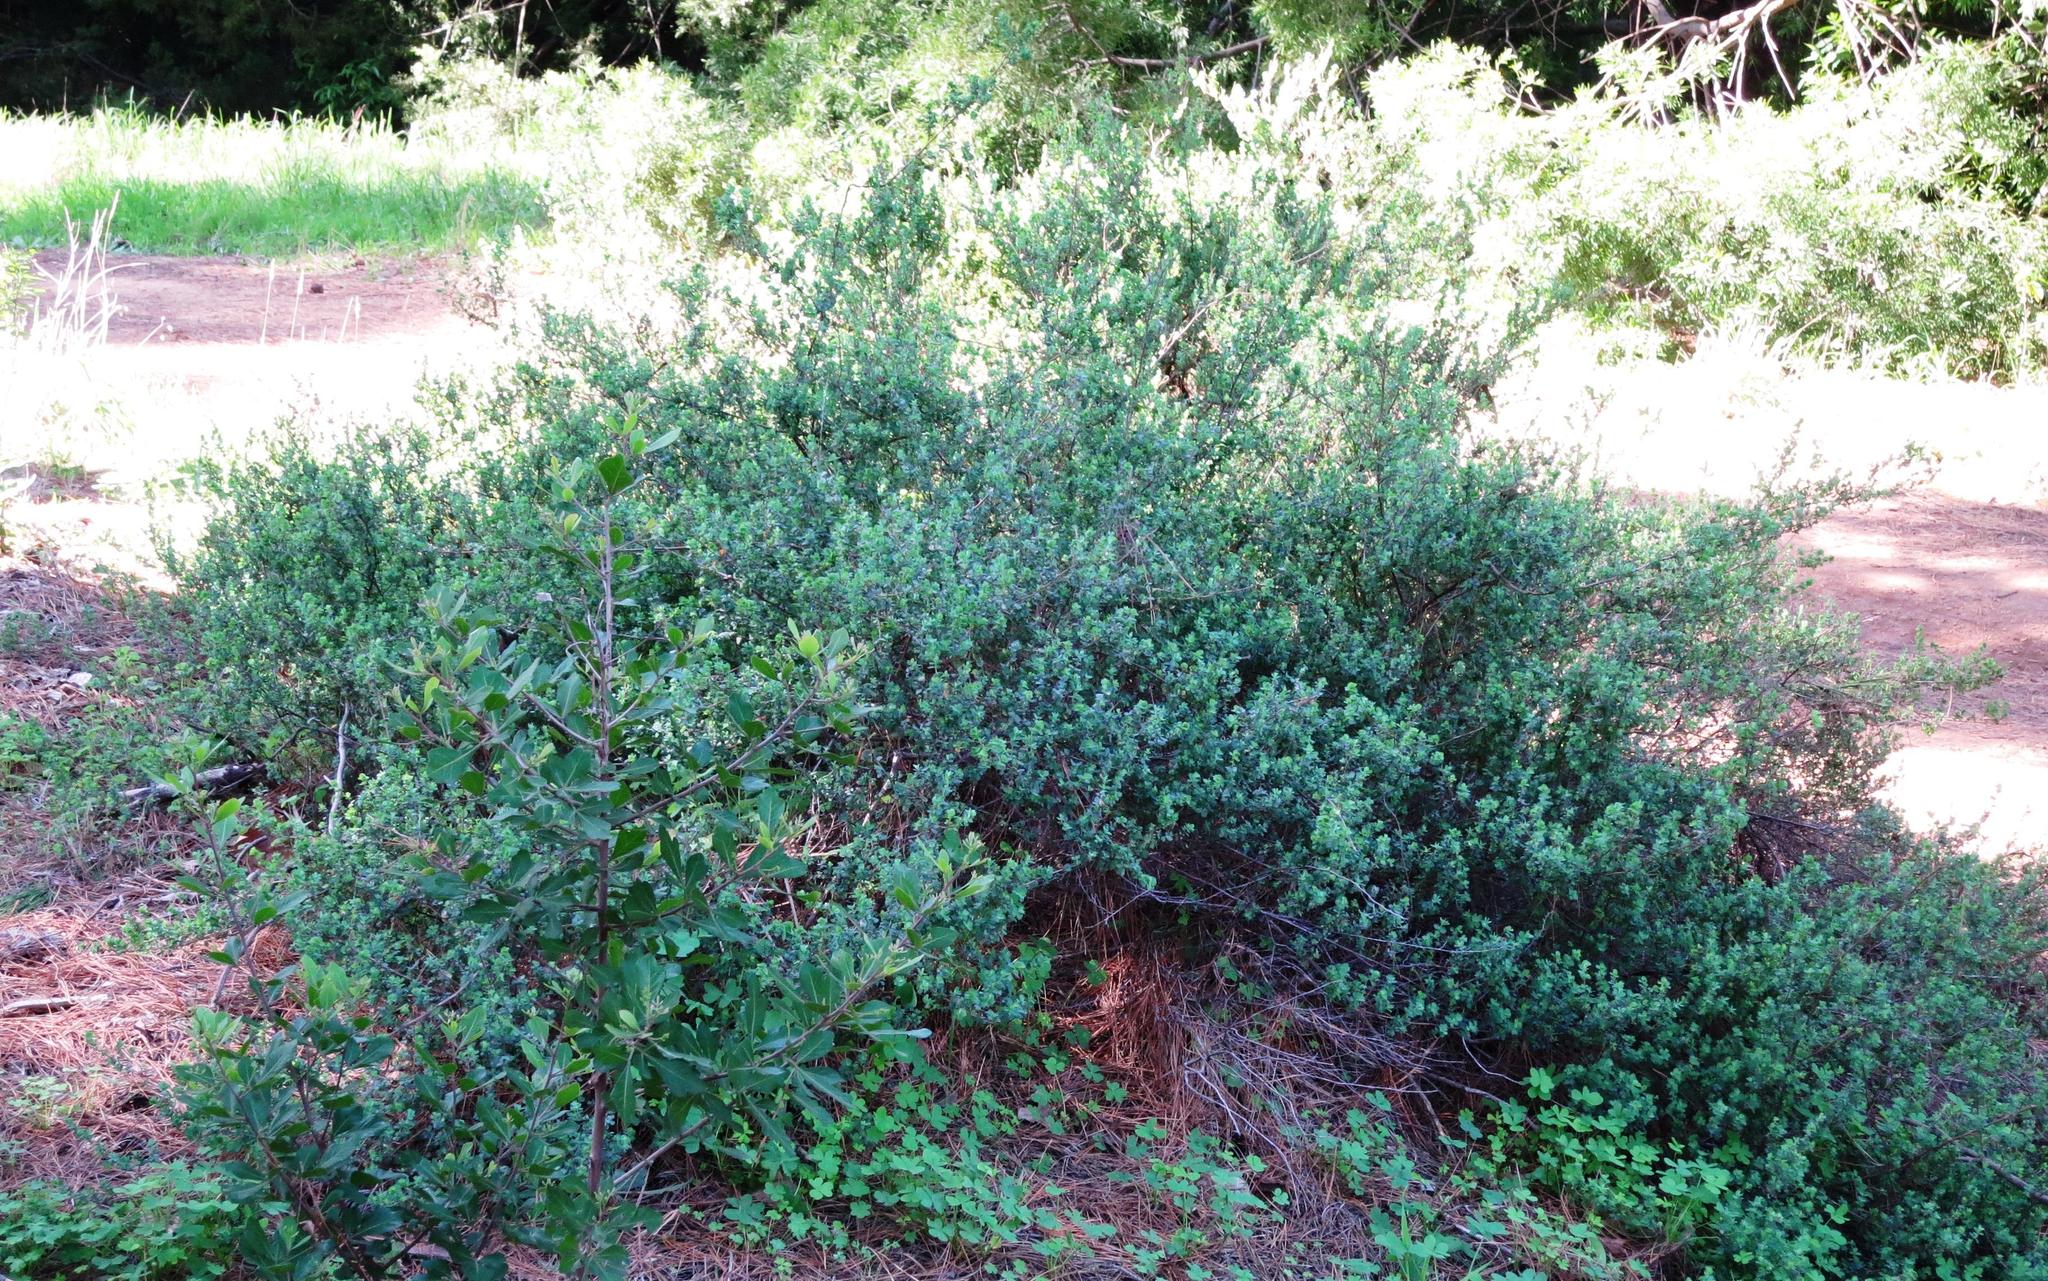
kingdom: Plantae
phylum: Tracheophyta
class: Magnoliopsida
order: Rosales
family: Rosaceae
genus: Cliffortia
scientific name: Cliffortia obcordata
